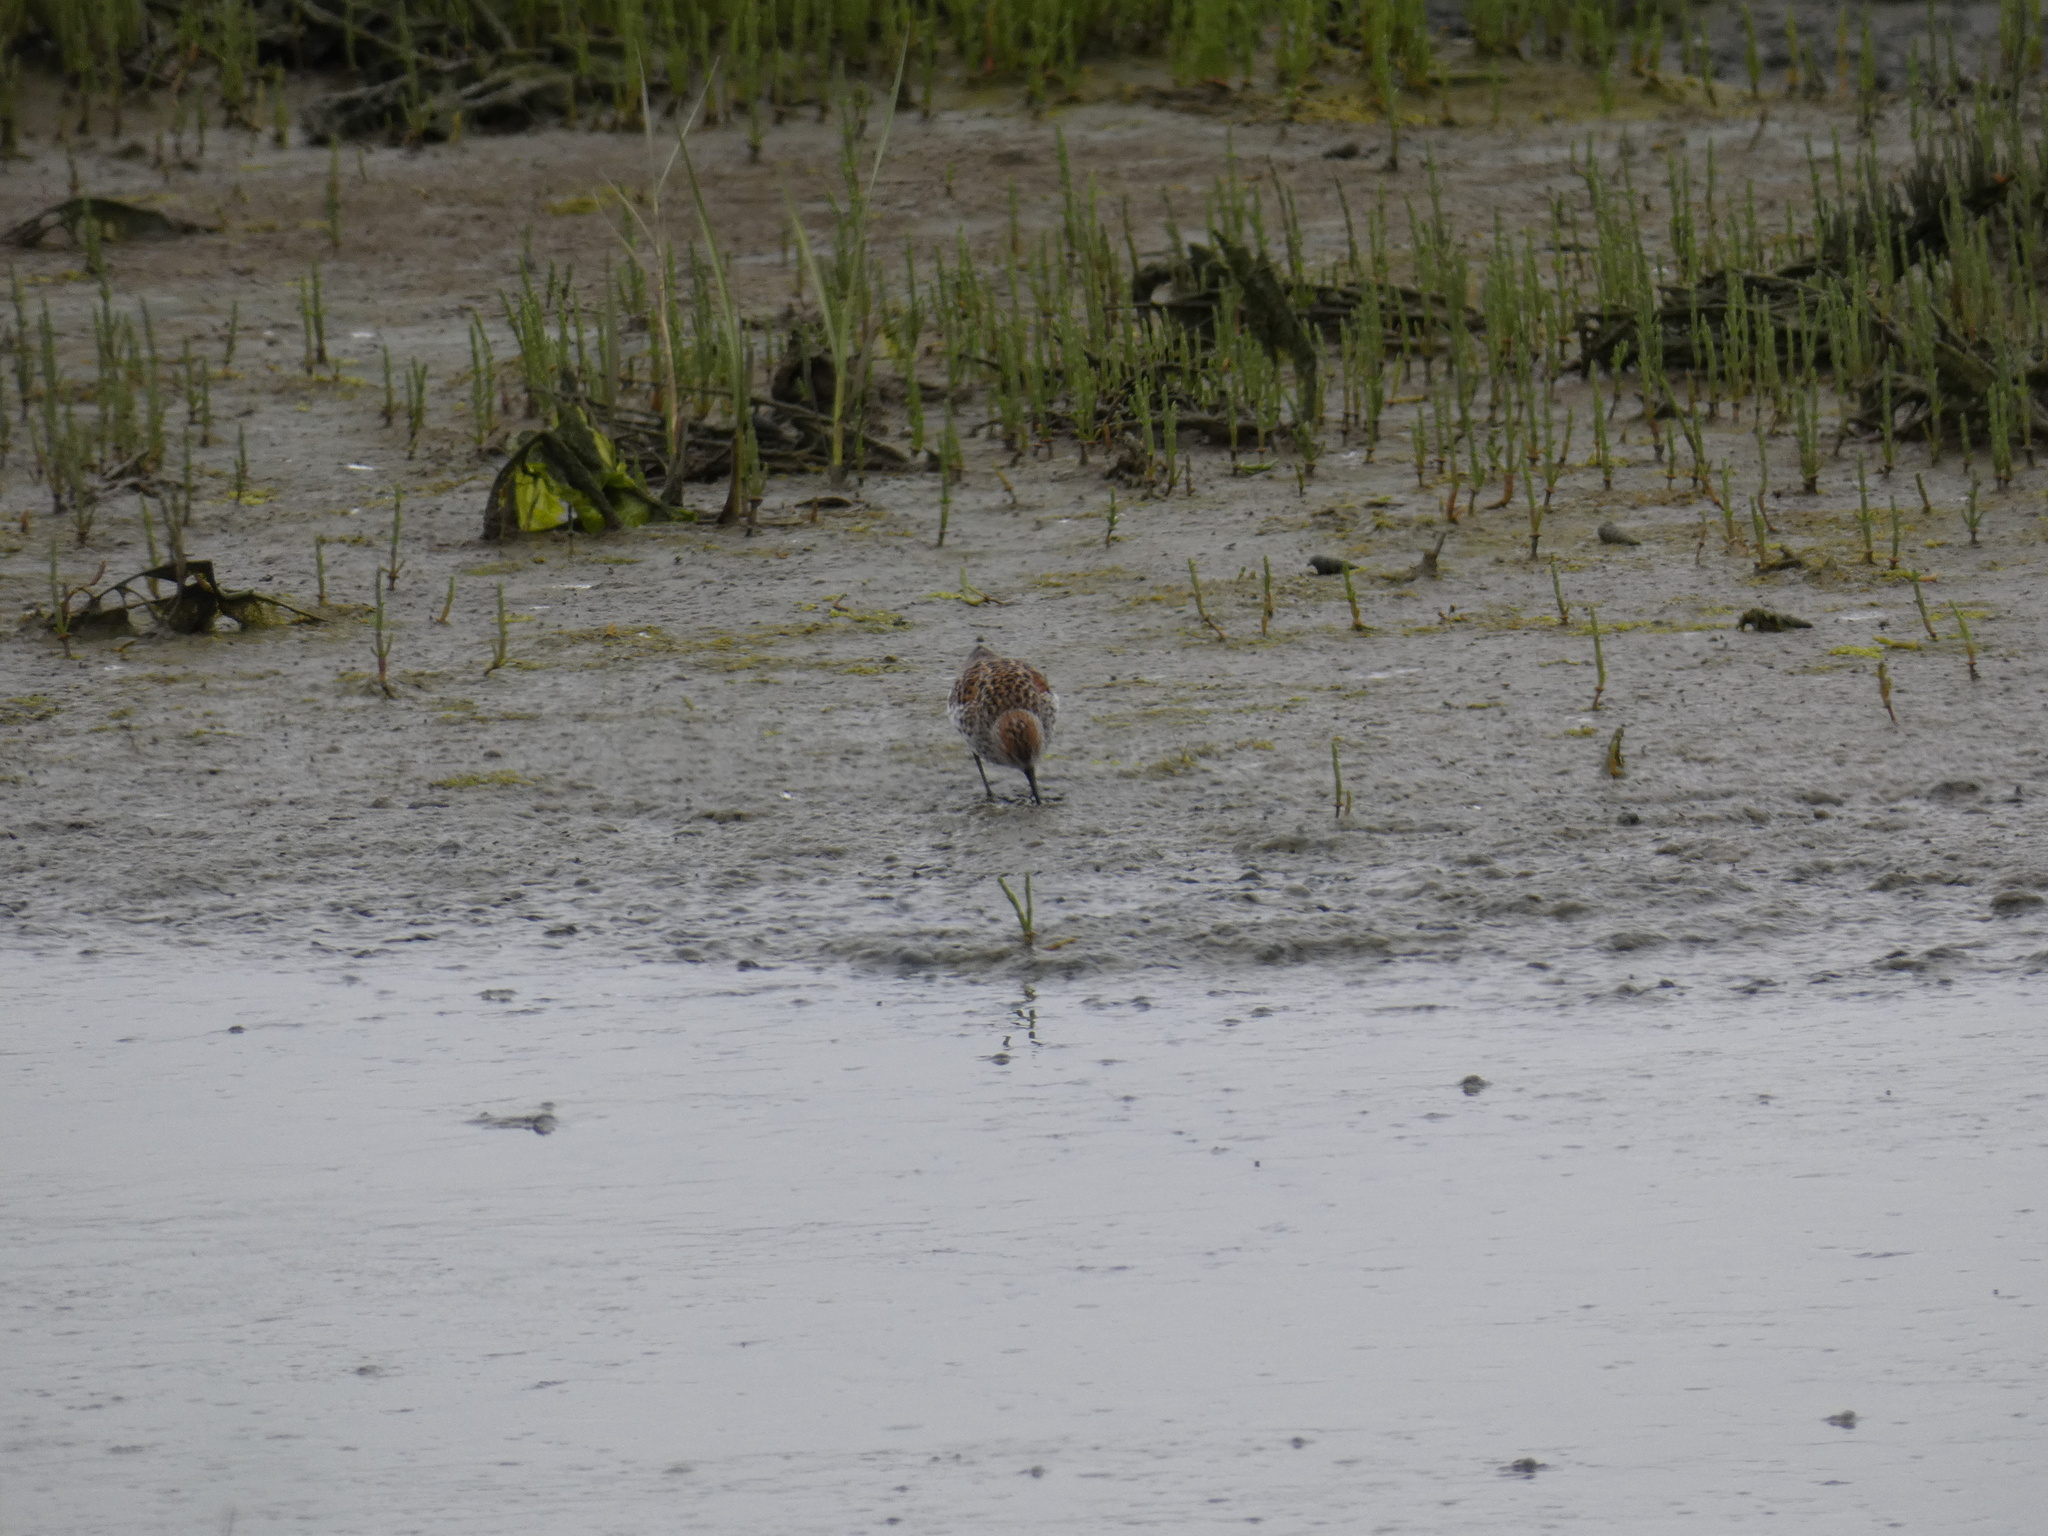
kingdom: Animalia
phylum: Chordata
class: Aves
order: Charadriiformes
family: Scolopacidae
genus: Calidris
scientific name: Calidris mauri
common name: Western sandpiper
